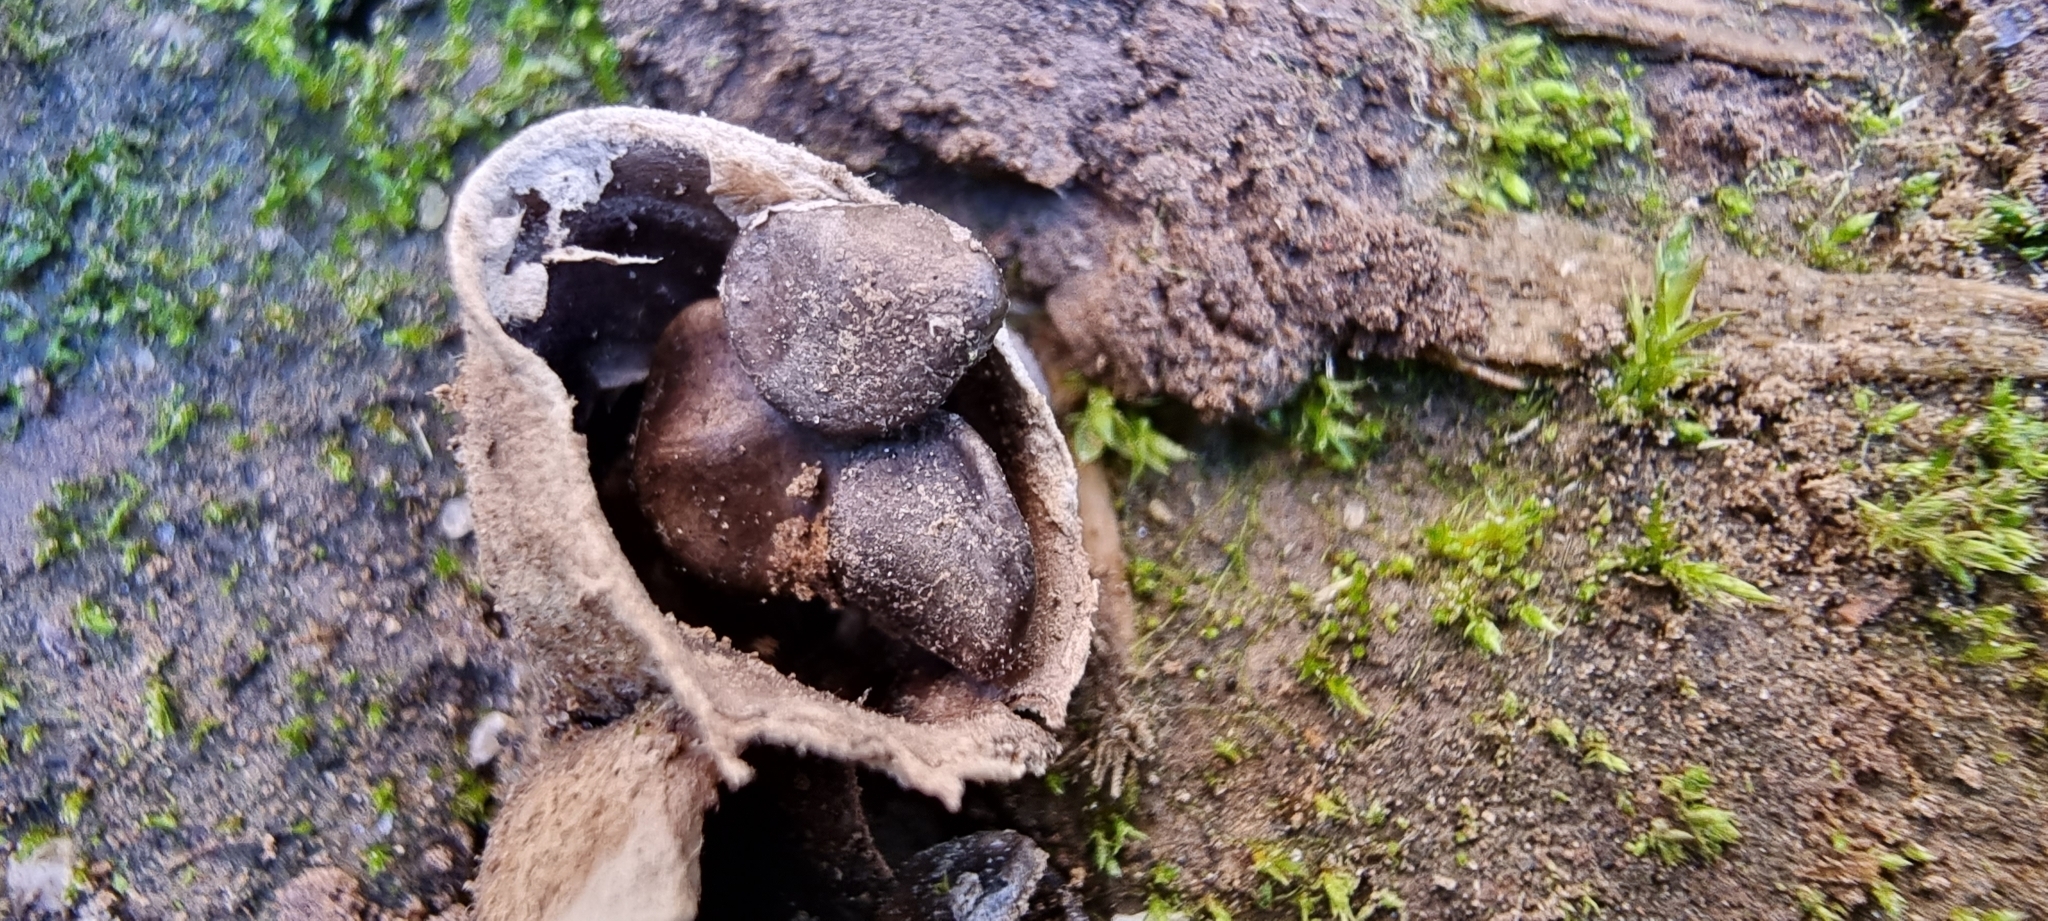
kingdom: Fungi
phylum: Basidiomycota
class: Agaricomycetes
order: Agaricales
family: Agaricaceae
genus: Cyathus
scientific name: Cyathus olla
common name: Field bird's nest
